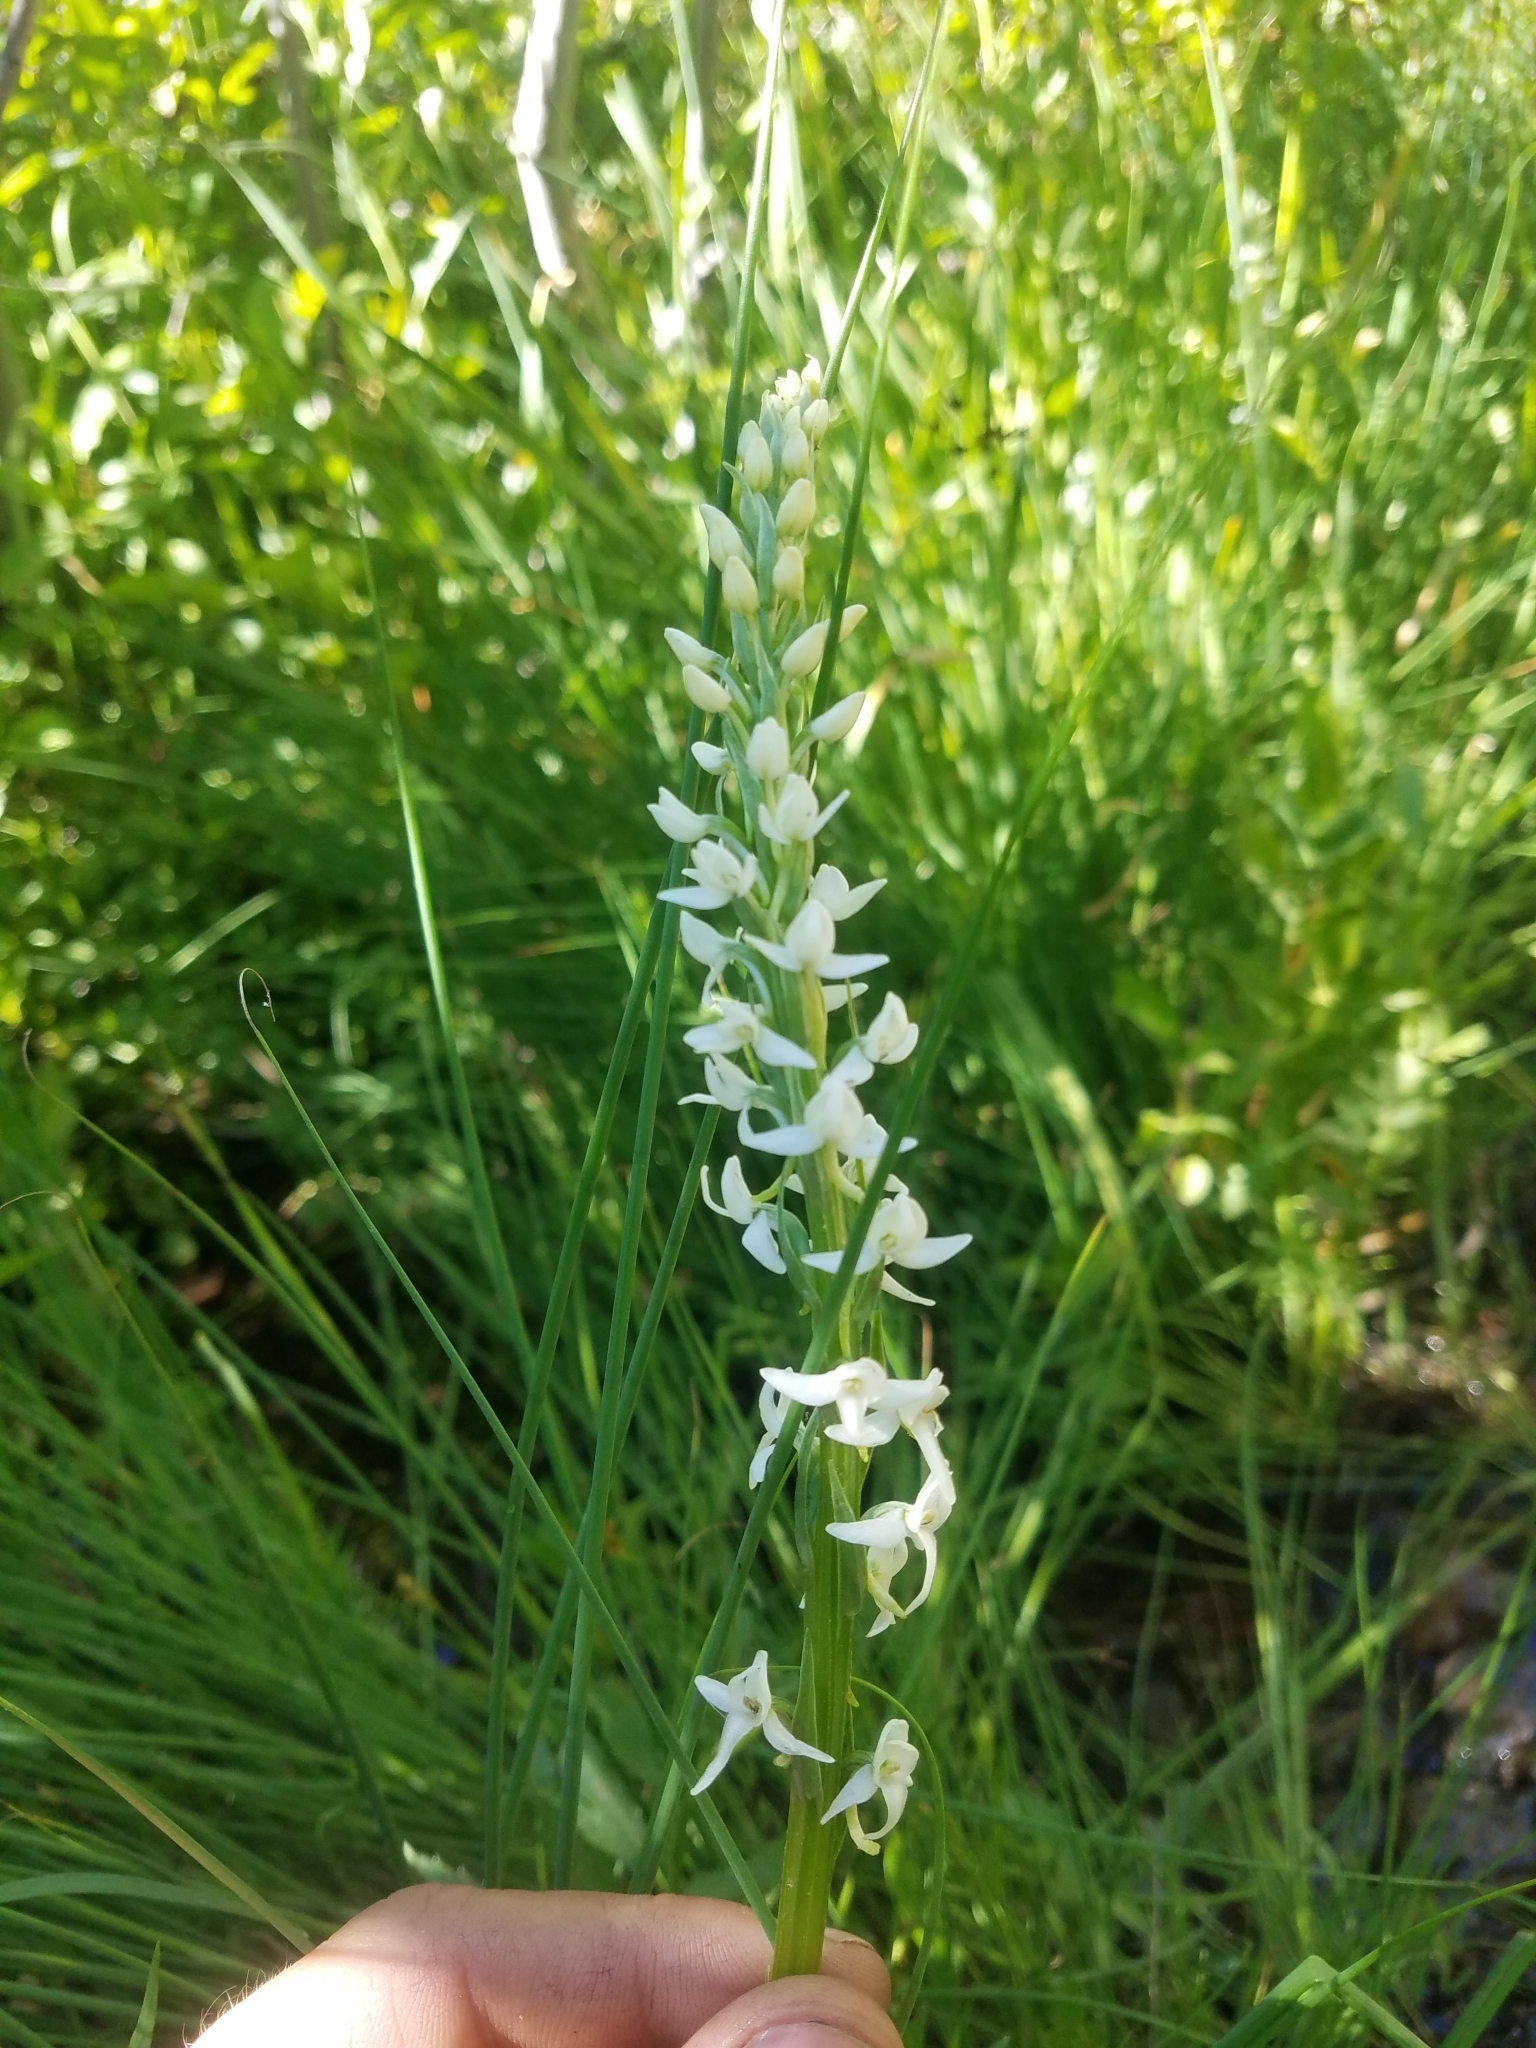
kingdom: Plantae
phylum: Tracheophyta
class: Liliopsida
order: Asparagales
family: Orchidaceae
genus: Platanthera
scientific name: Platanthera dilatata
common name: Bog candles
